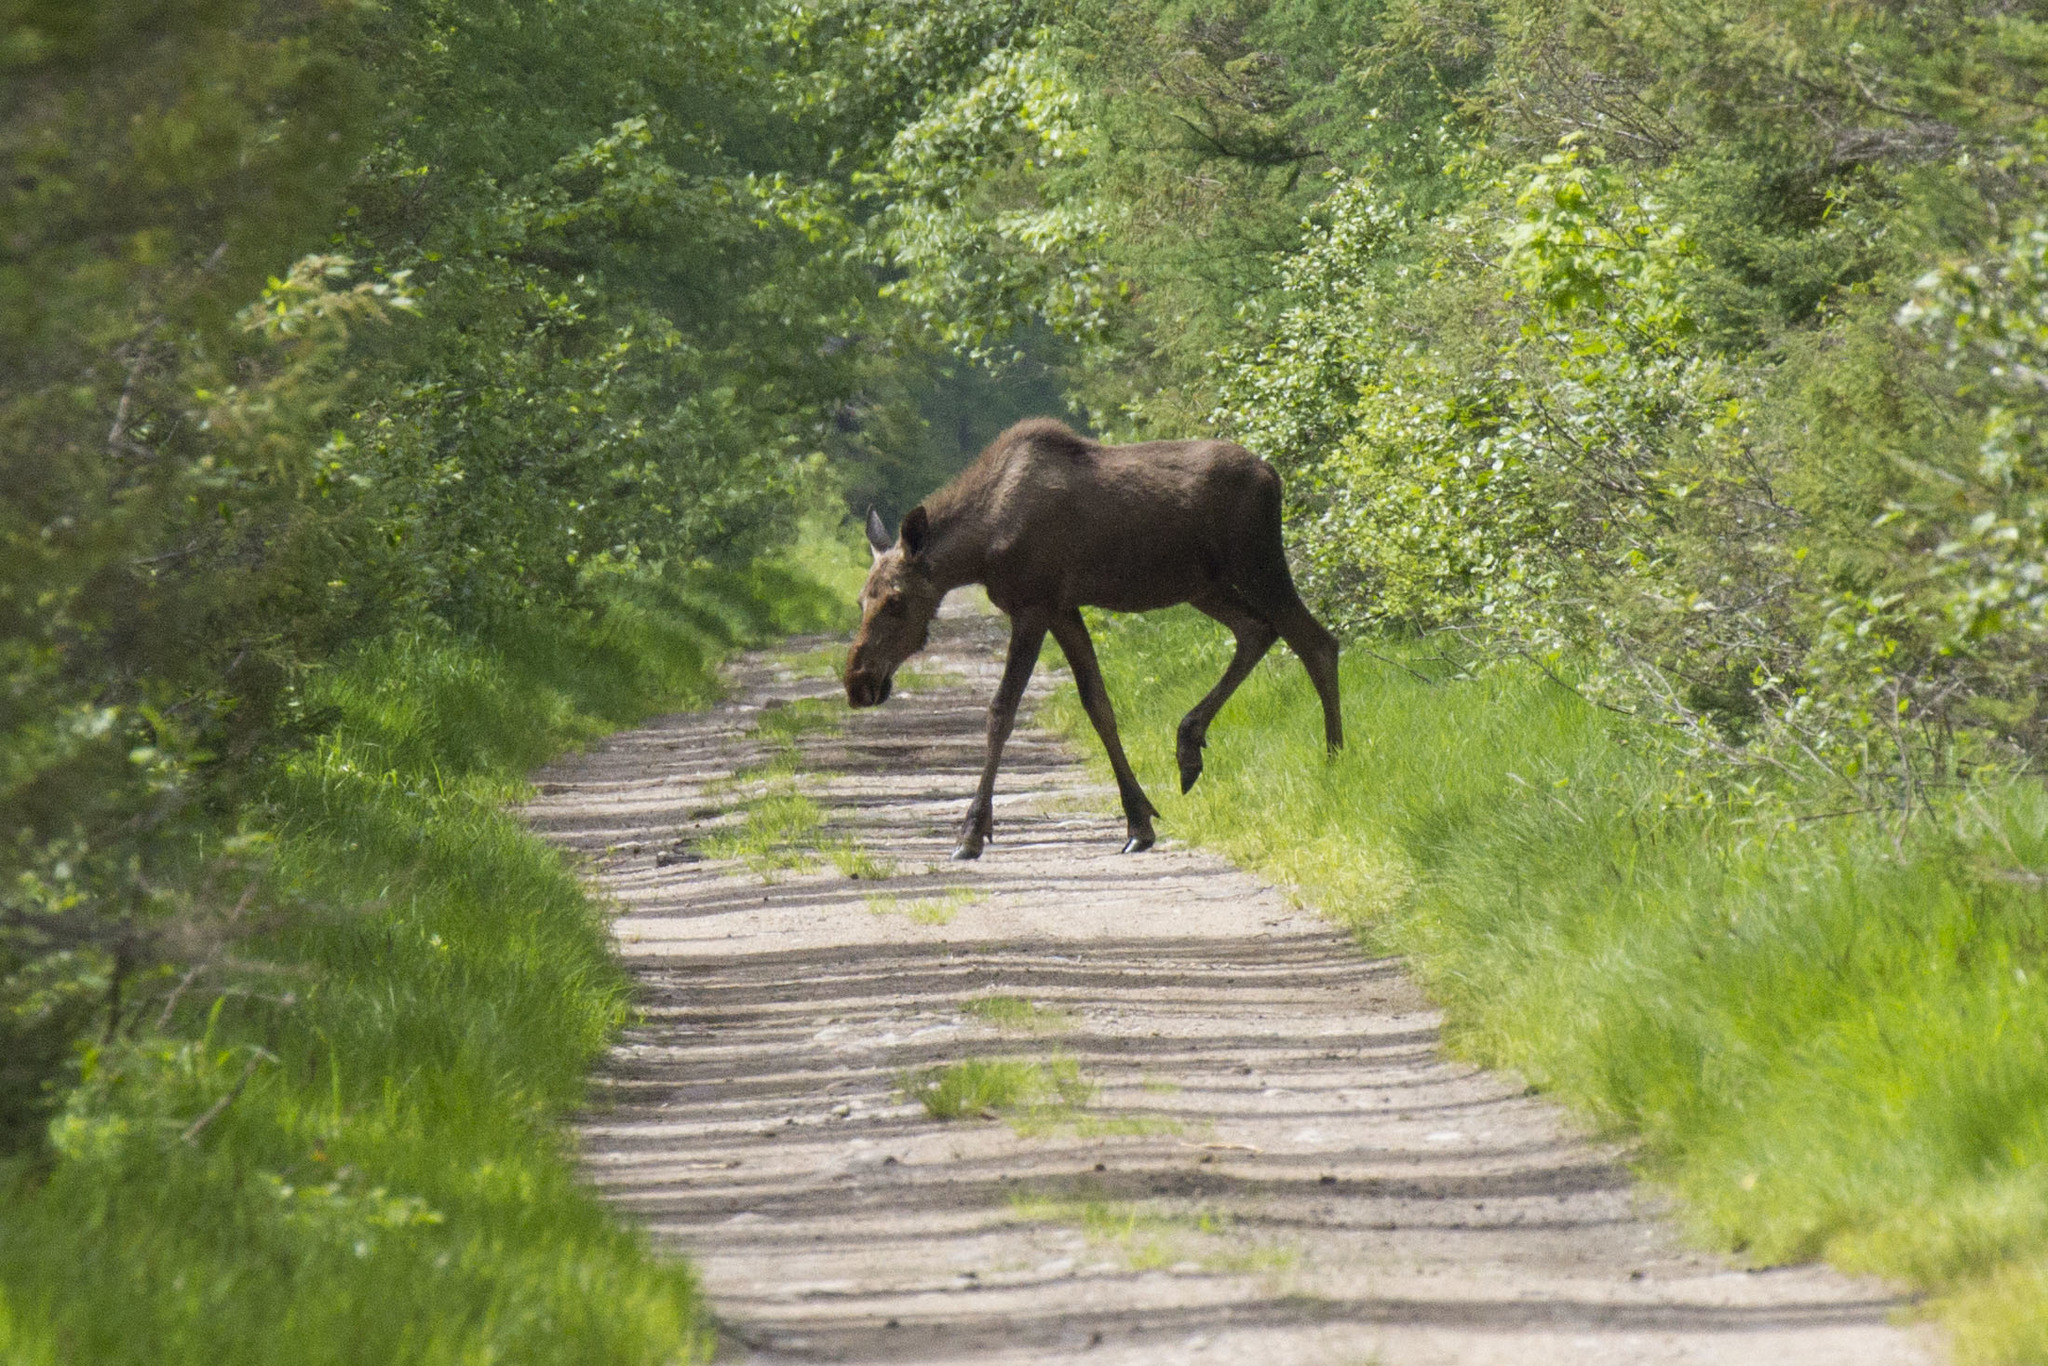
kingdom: Animalia
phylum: Chordata
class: Mammalia
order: Artiodactyla
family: Cervidae
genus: Alces
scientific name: Alces alces
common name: Moose
